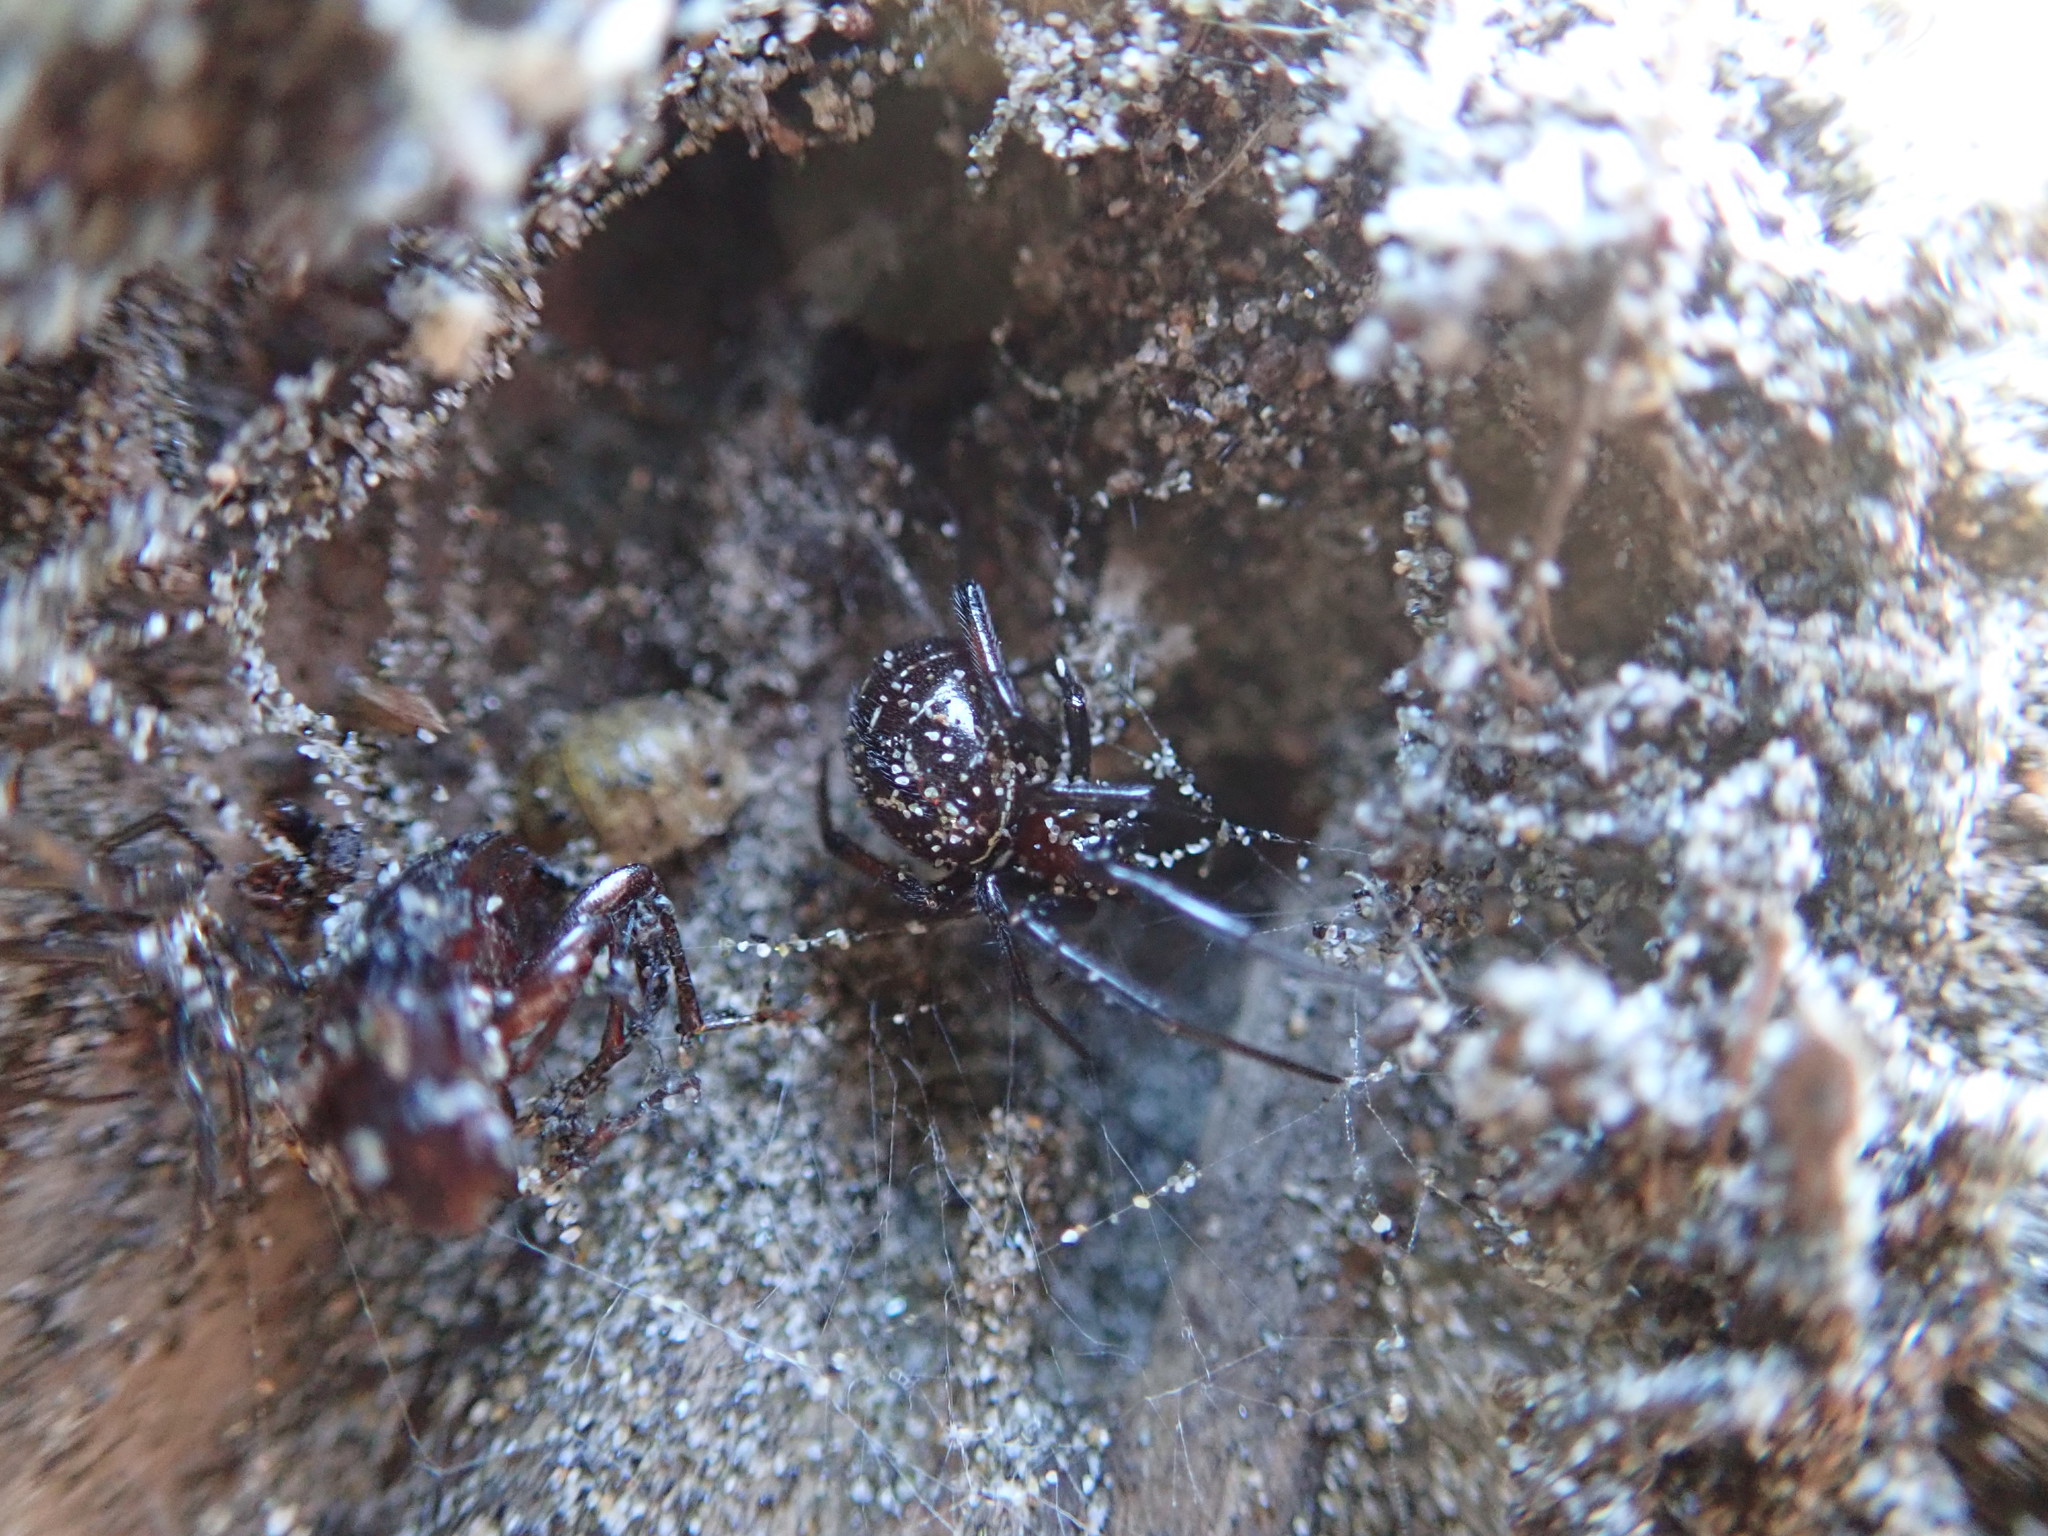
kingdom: Animalia
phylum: Arthropoda
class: Arachnida
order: Araneae
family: Theridiidae
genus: Steatoda
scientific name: Steatoda capensis
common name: Cobweb weaver
